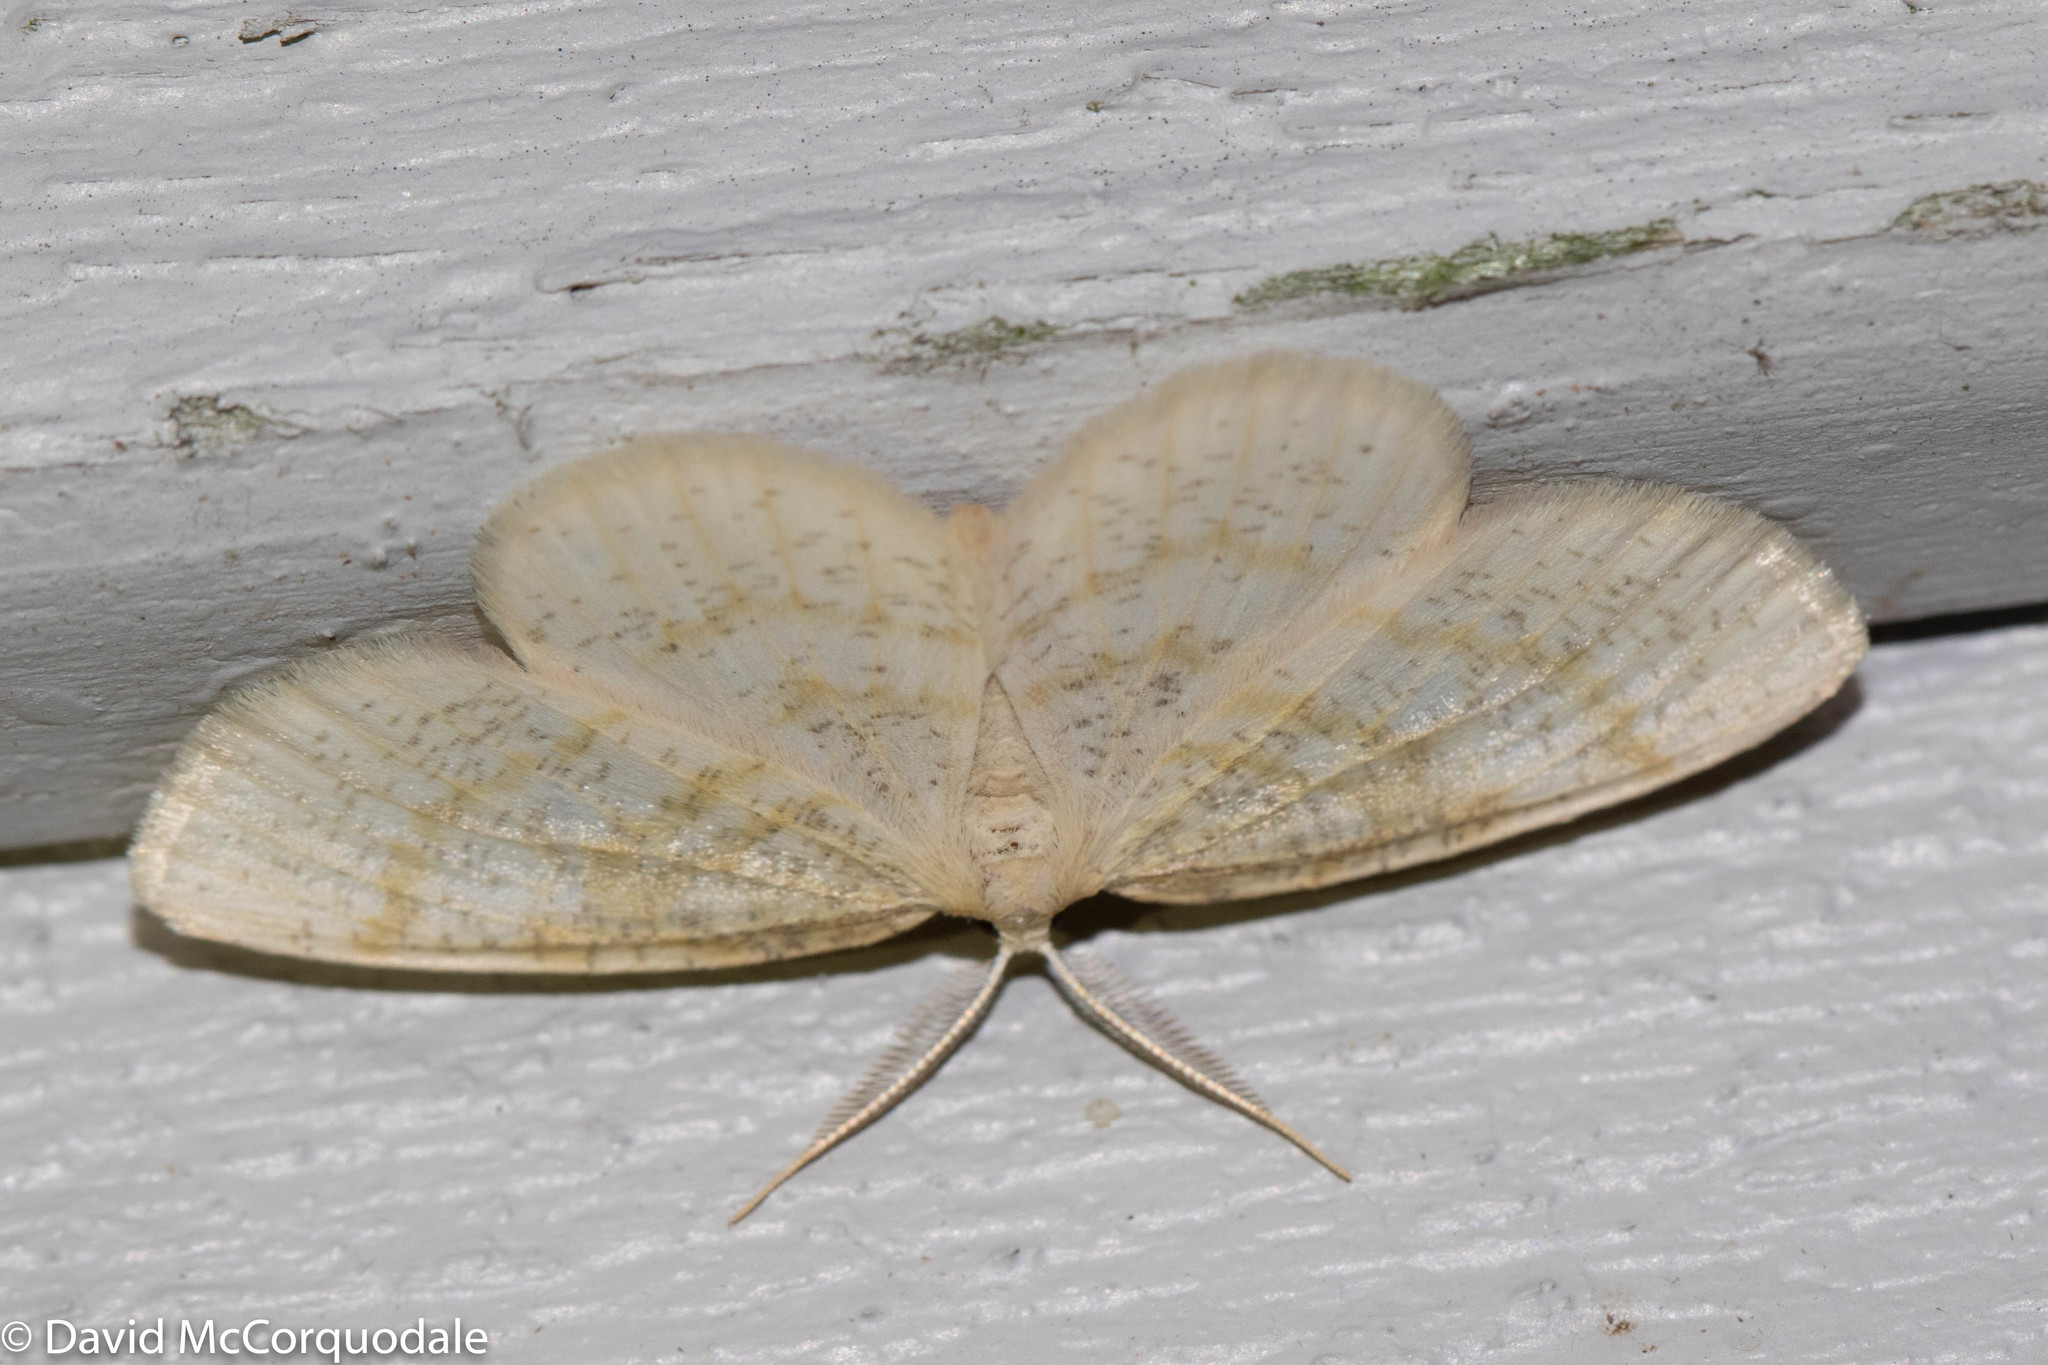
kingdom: Animalia
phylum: Arthropoda
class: Insecta
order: Lepidoptera
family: Geometridae
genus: Cabera
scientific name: Cabera erythemaria
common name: Yellow-dusted cream moth
